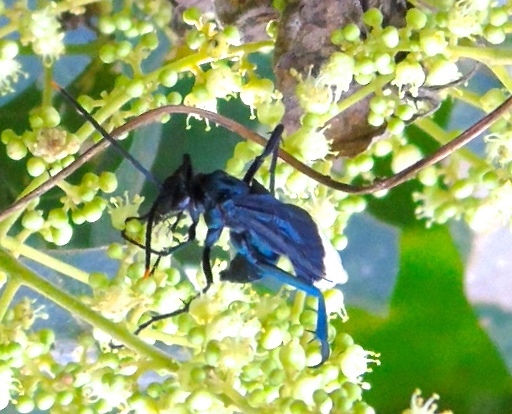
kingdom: Animalia
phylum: Arthropoda
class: Insecta
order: Hymenoptera
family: Pompilidae
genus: Pepsis
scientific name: Pepsis
